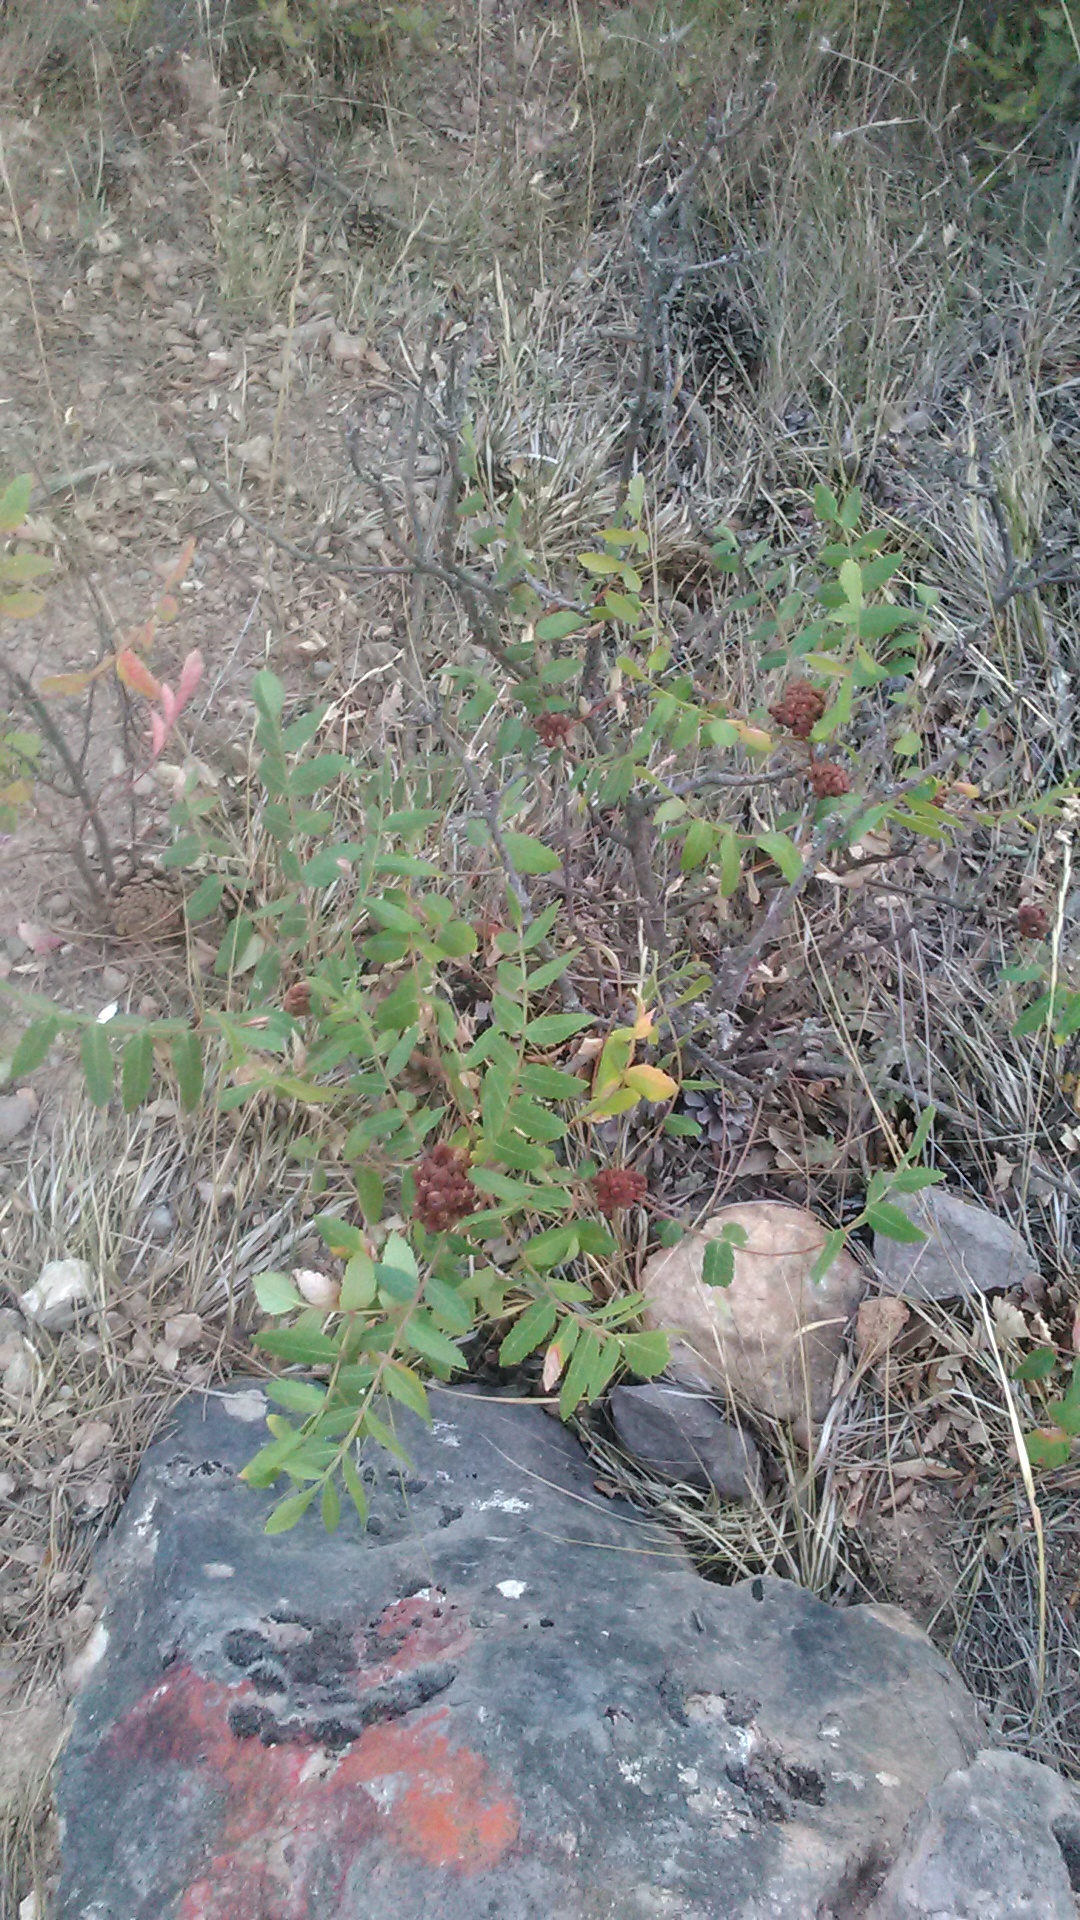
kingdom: Plantae
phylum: Tracheophyta
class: Magnoliopsida
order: Sapindales
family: Anacardiaceae
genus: Rhus
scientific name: Rhus coriaria
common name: Tanner's sumach
